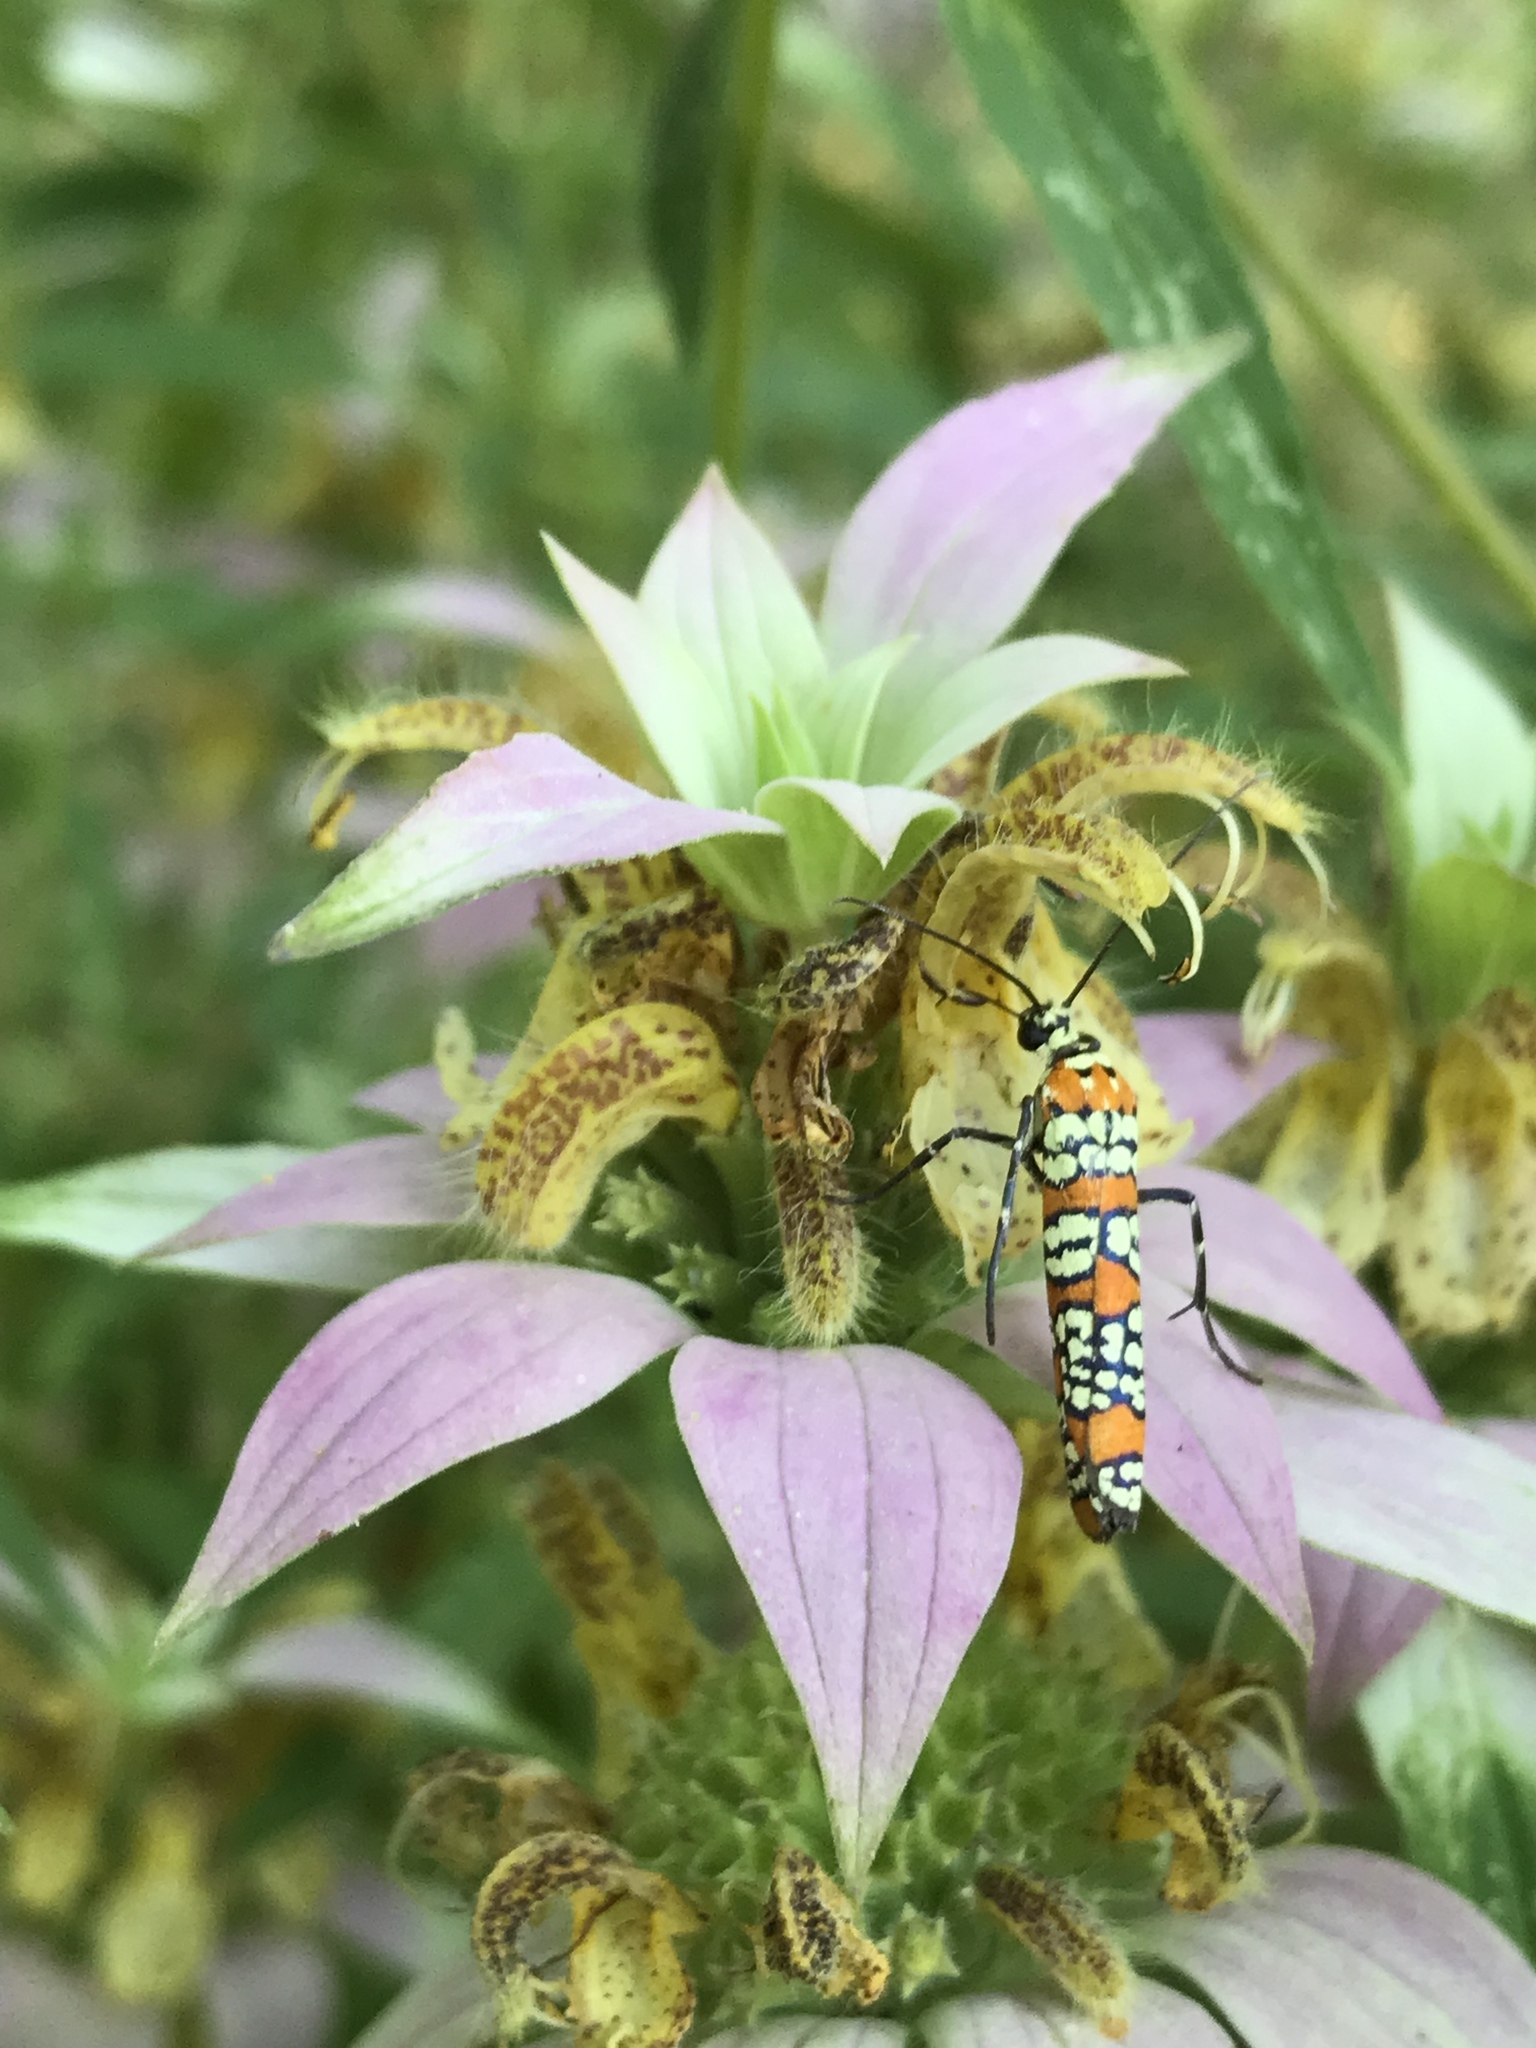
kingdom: Animalia
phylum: Arthropoda
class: Insecta
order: Lepidoptera
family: Attevidae
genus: Atteva
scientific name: Atteva punctella
